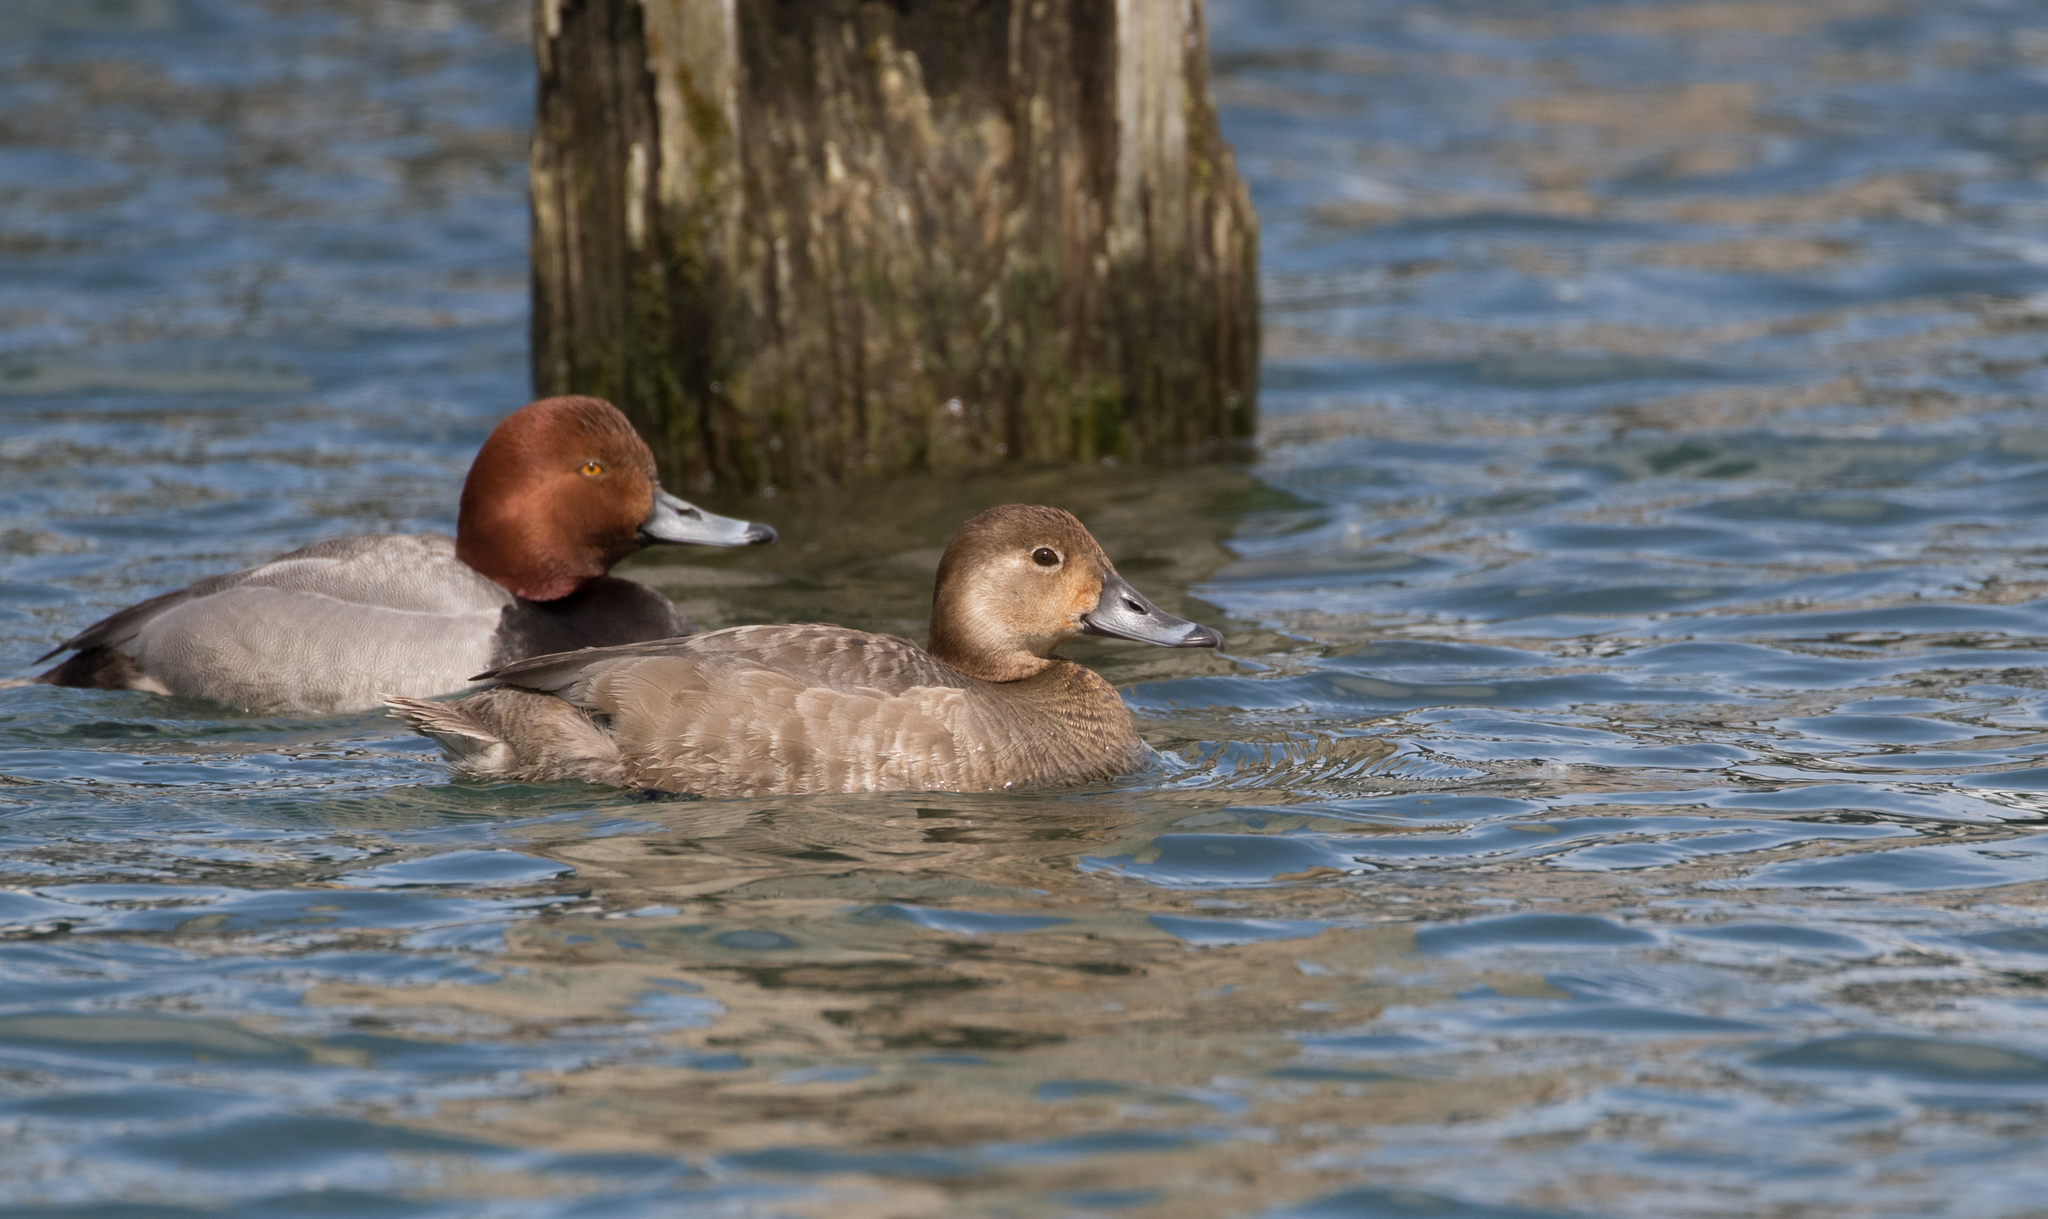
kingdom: Animalia
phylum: Chordata
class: Aves
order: Anseriformes
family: Anatidae
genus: Aythya
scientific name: Aythya americana
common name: Redhead
